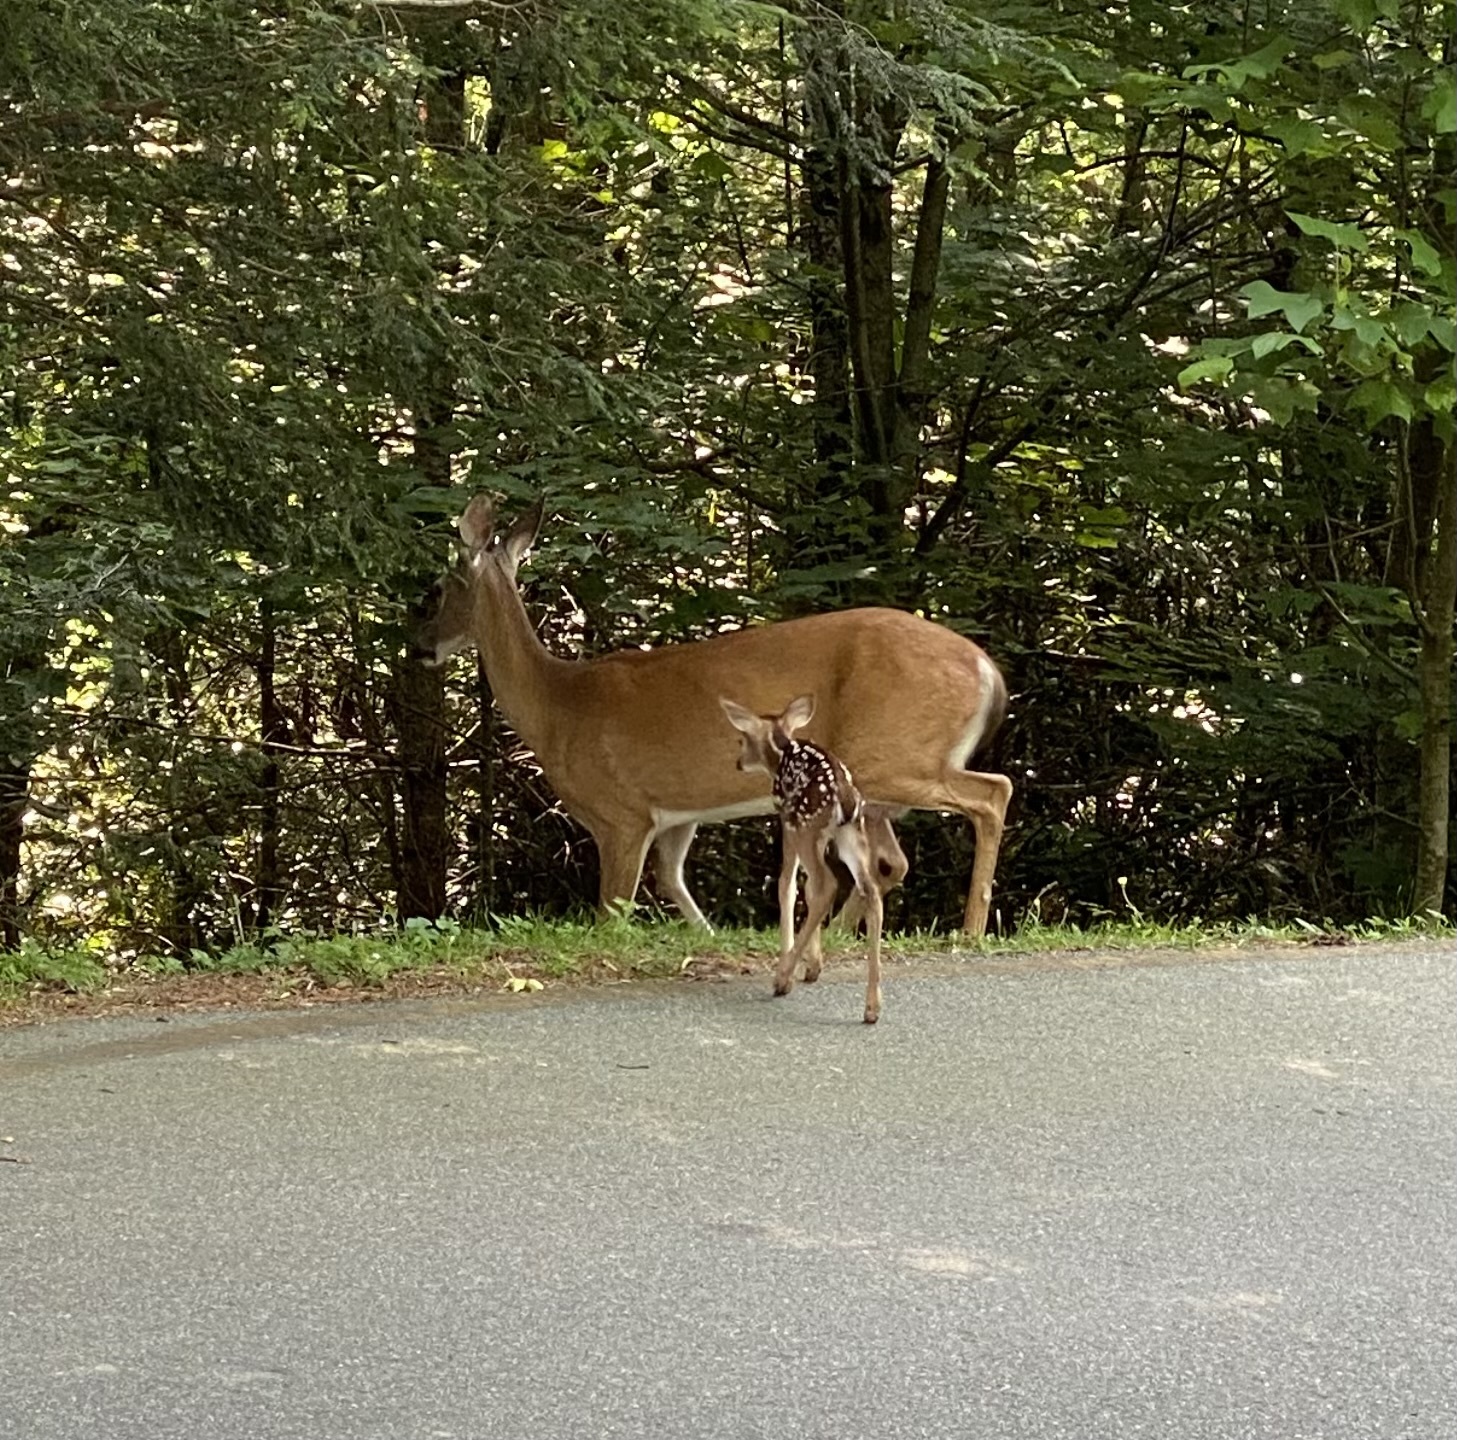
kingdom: Animalia
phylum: Chordata
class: Mammalia
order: Artiodactyla
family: Cervidae
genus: Odocoileus
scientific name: Odocoileus virginianus
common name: White-tailed deer
